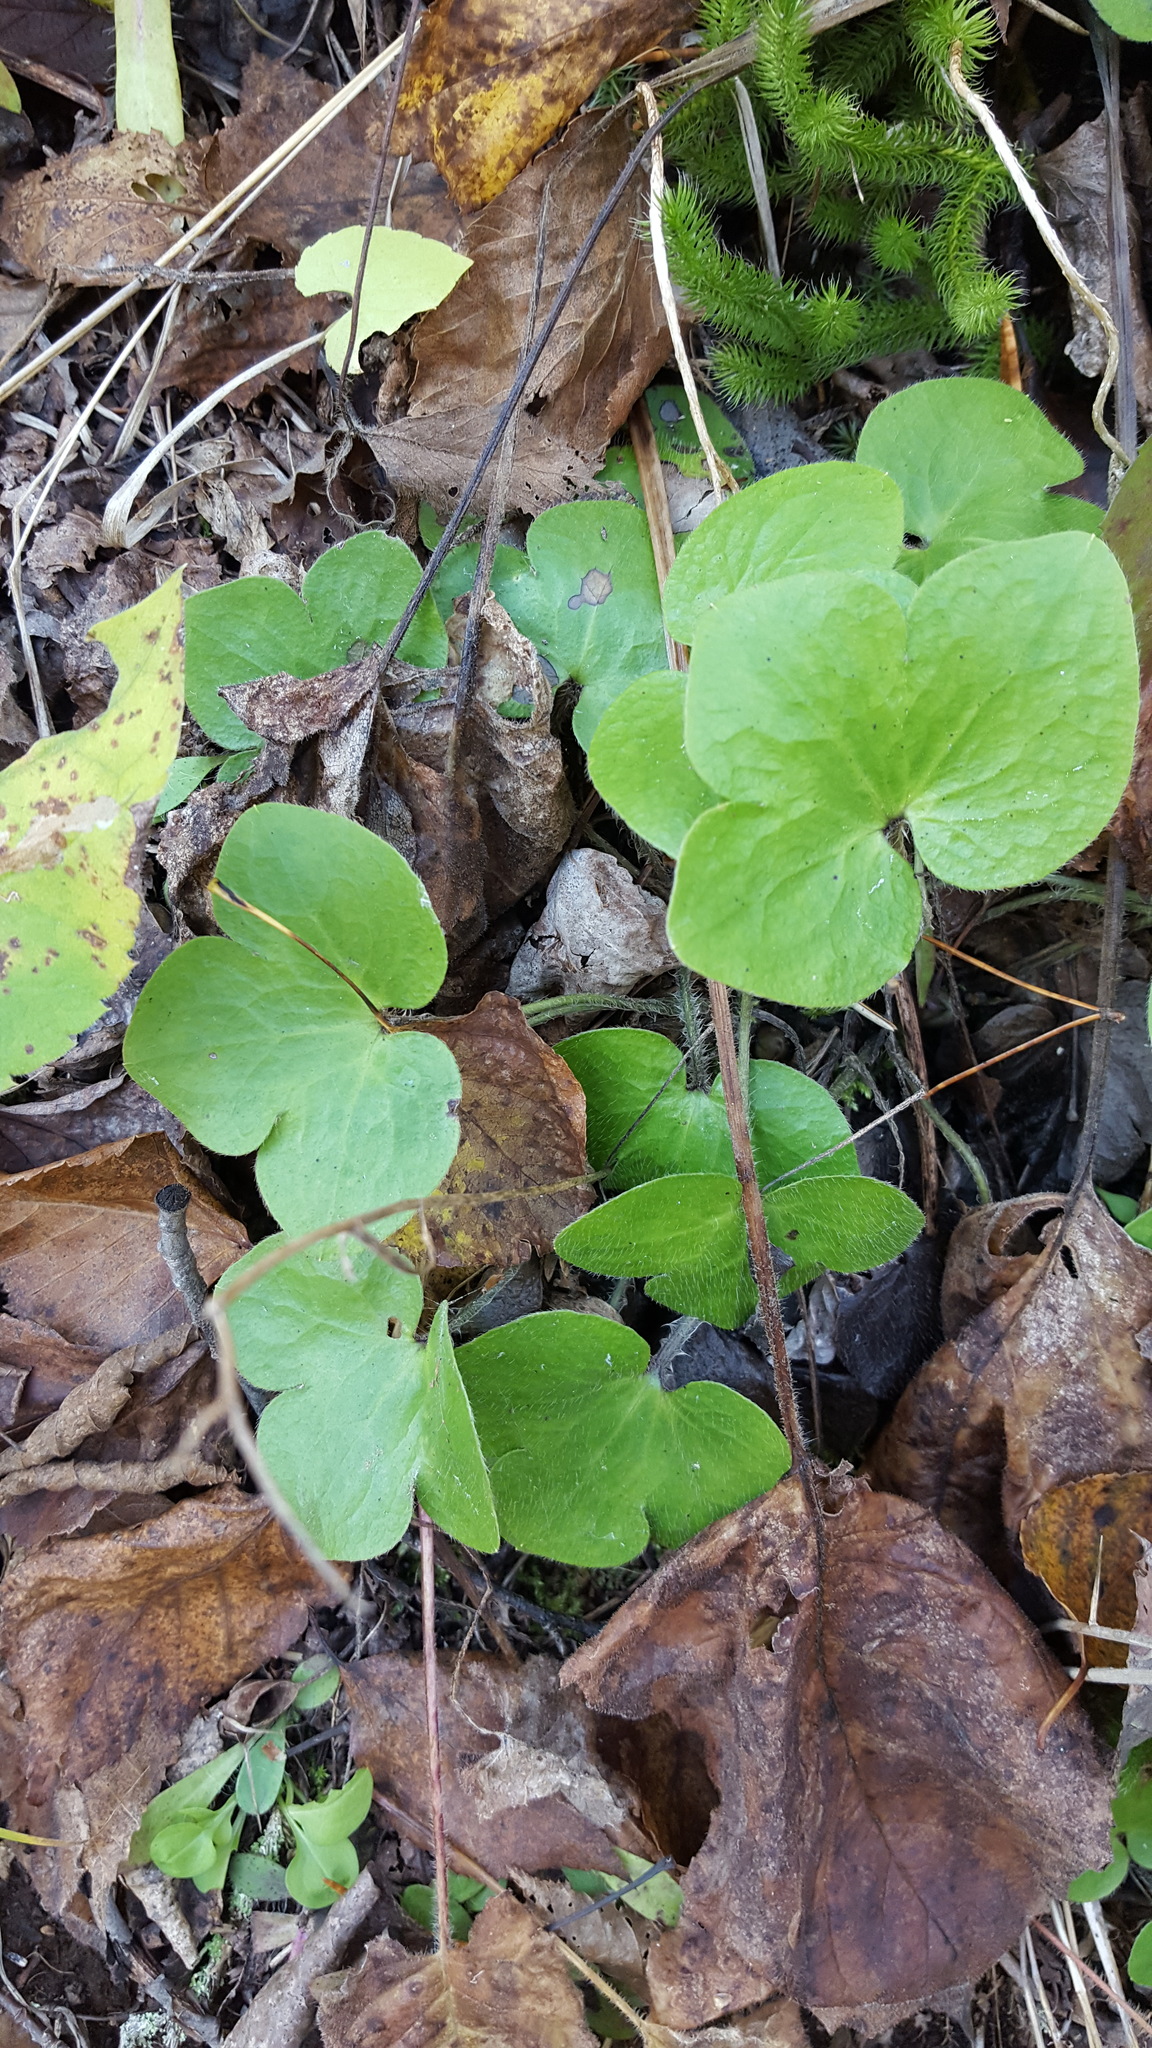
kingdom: Plantae
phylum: Tracheophyta
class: Magnoliopsida
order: Ranunculales
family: Ranunculaceae
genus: Hepatica
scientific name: Hepatica americana
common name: American hepatica
